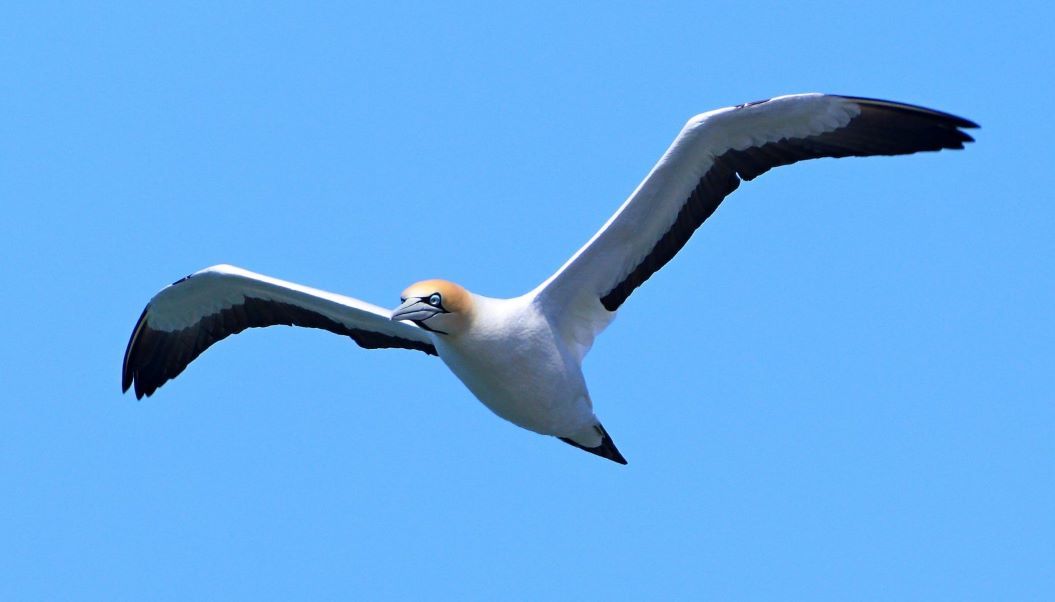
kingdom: Animalia
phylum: Chordata
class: Aves
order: Suliformes
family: Sulidae
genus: Morus
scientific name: Morus capensis
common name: Cape gannet
